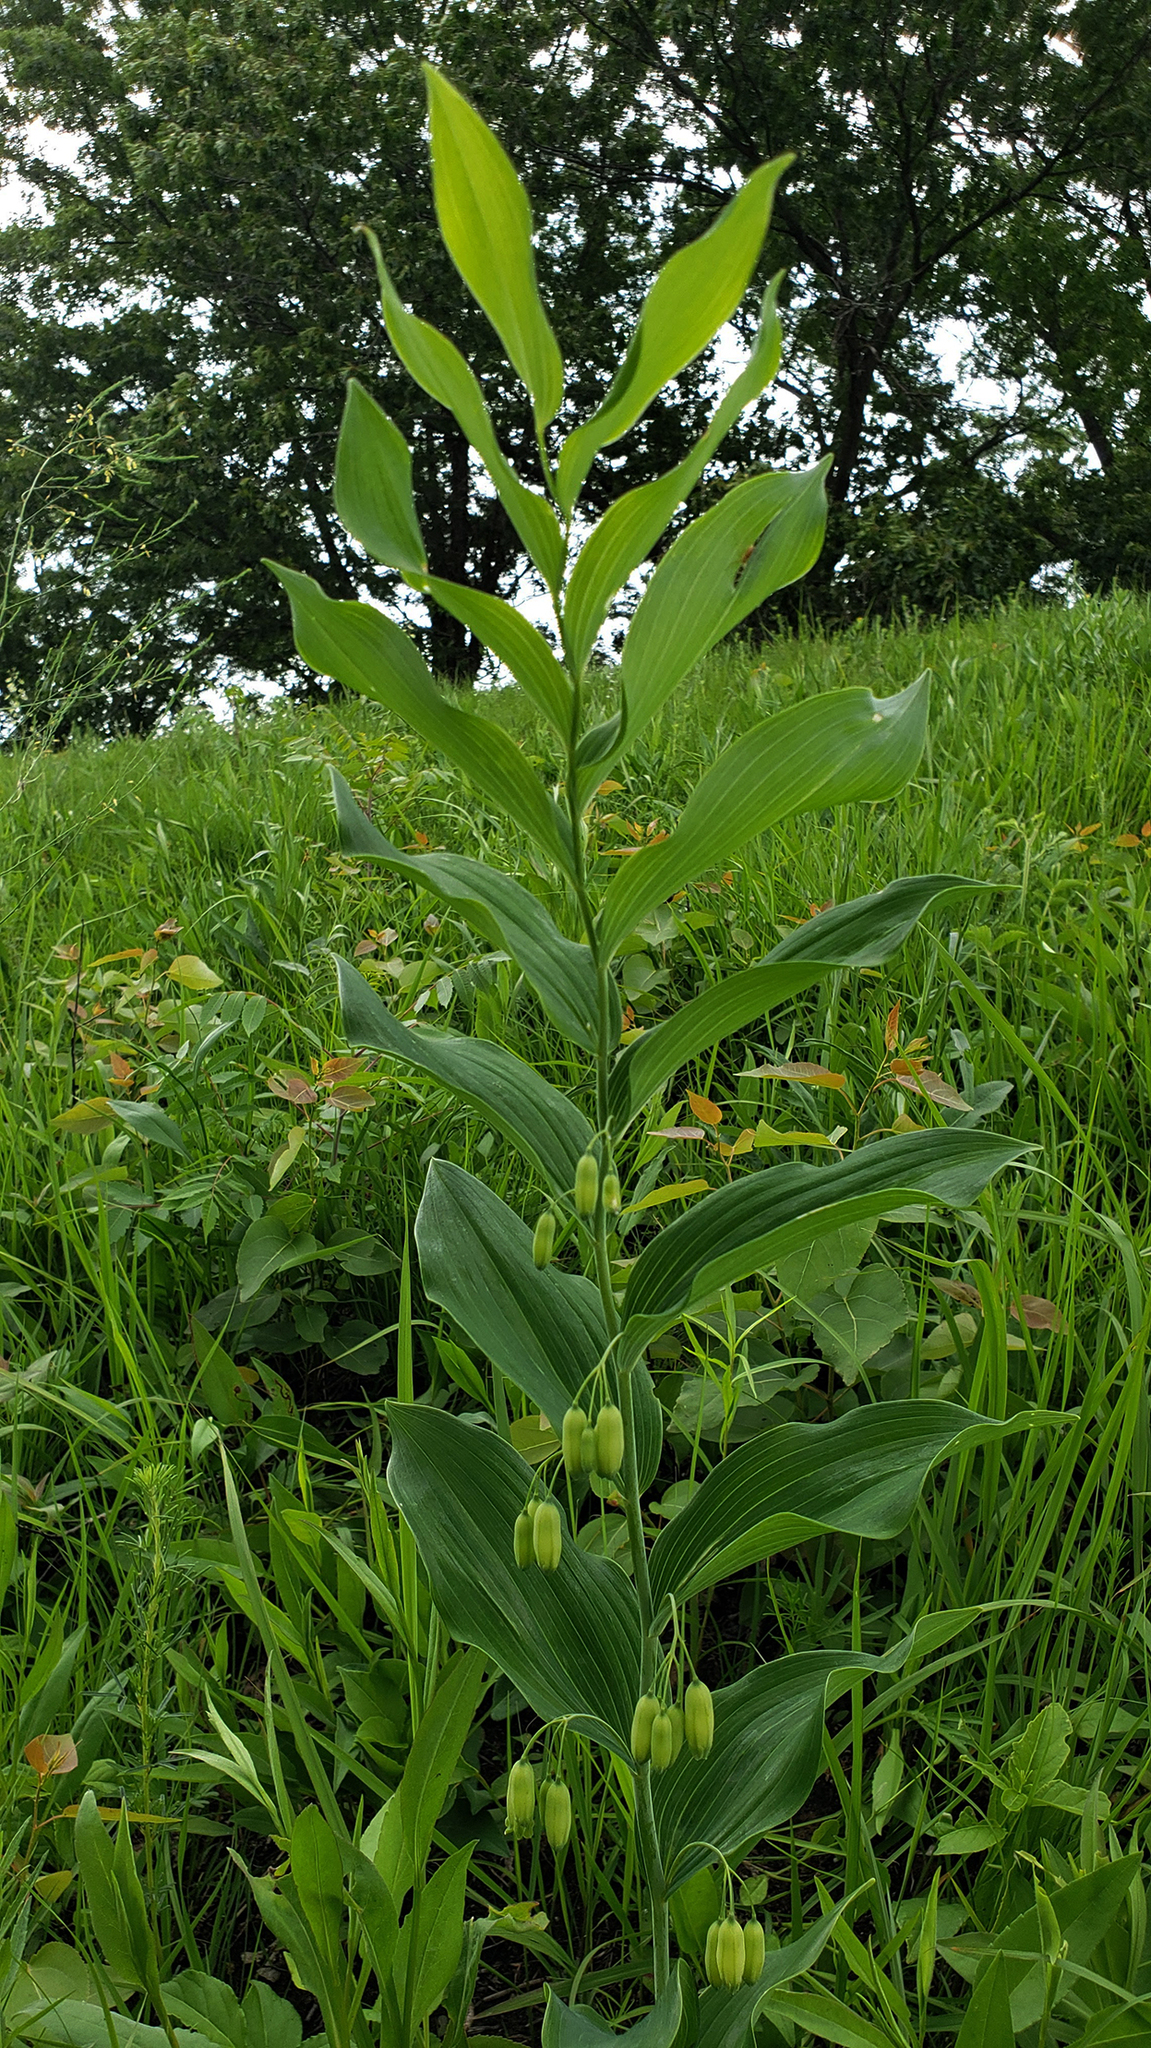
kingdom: Plantae
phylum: Tracheophyta
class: Liliopsida
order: Asparagales
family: Asparagaceae
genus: Polygonatum
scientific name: Polygonatum biflorum
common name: American solomon's-seal
